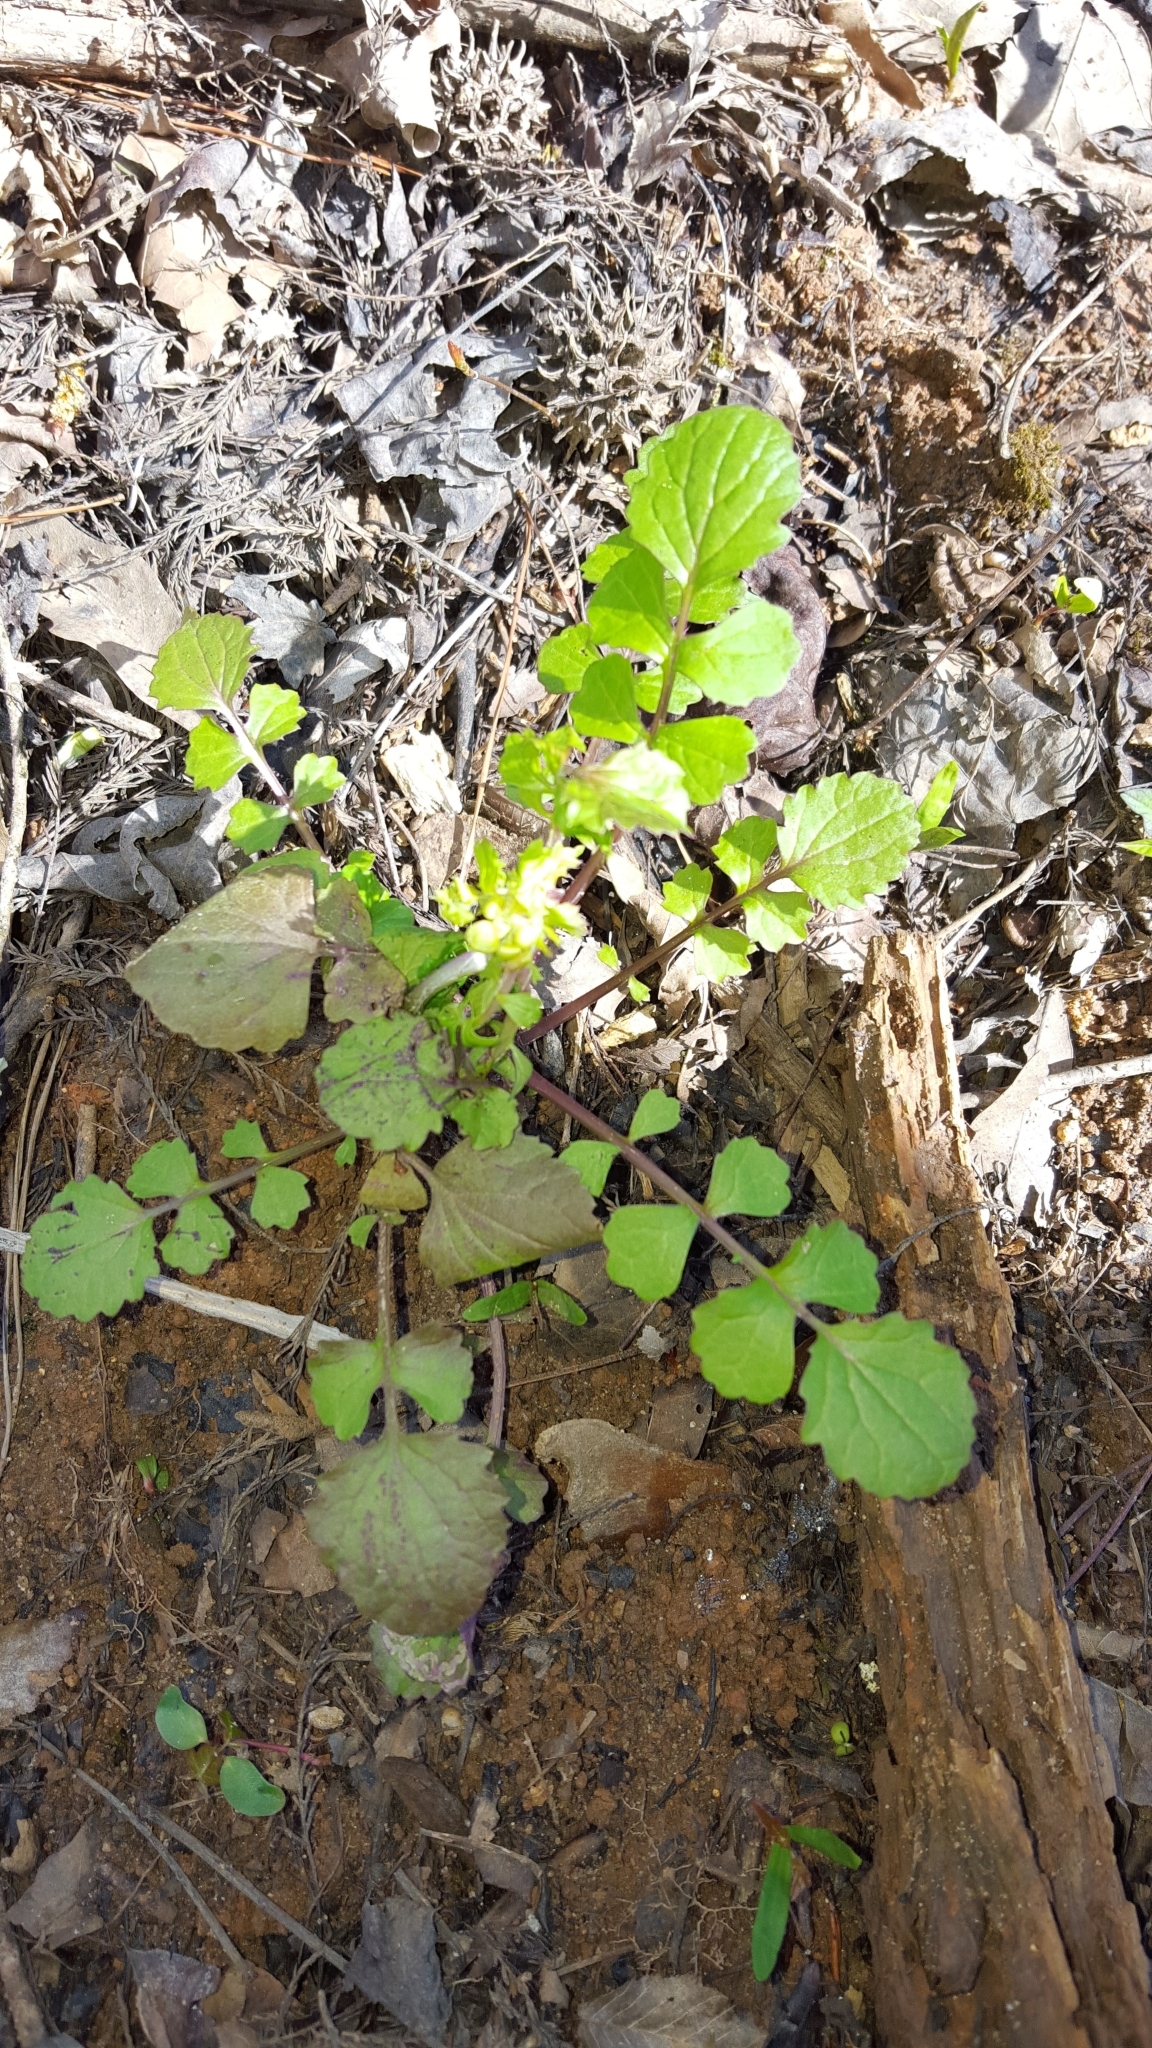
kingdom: Plantae
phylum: Tracheophyta
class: Magnoliopsida
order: Asterales
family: Asteraceae
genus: Packera
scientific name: Packera glabella
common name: Butterweed
